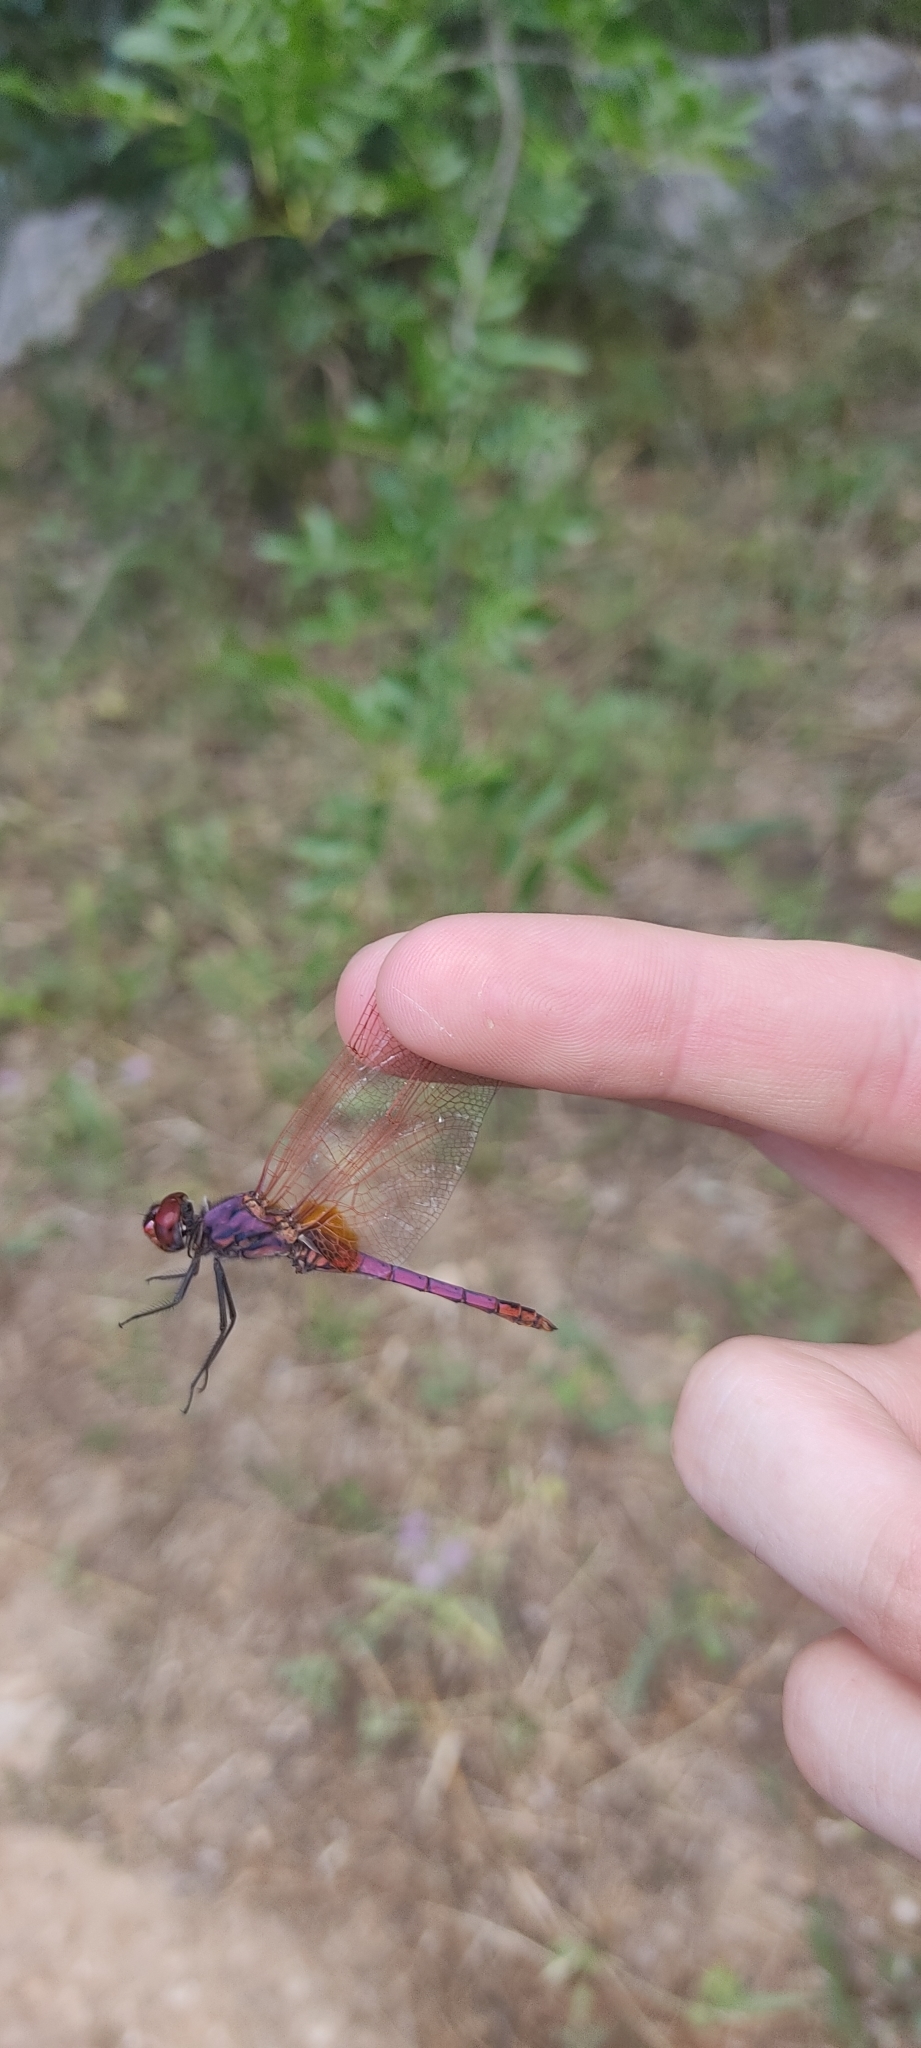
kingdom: Animalia
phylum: Arthropoda
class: Insecta
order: Odonata
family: Libellulidae
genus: Trithemis
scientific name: Trithemis annulata
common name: Violet dropwing
